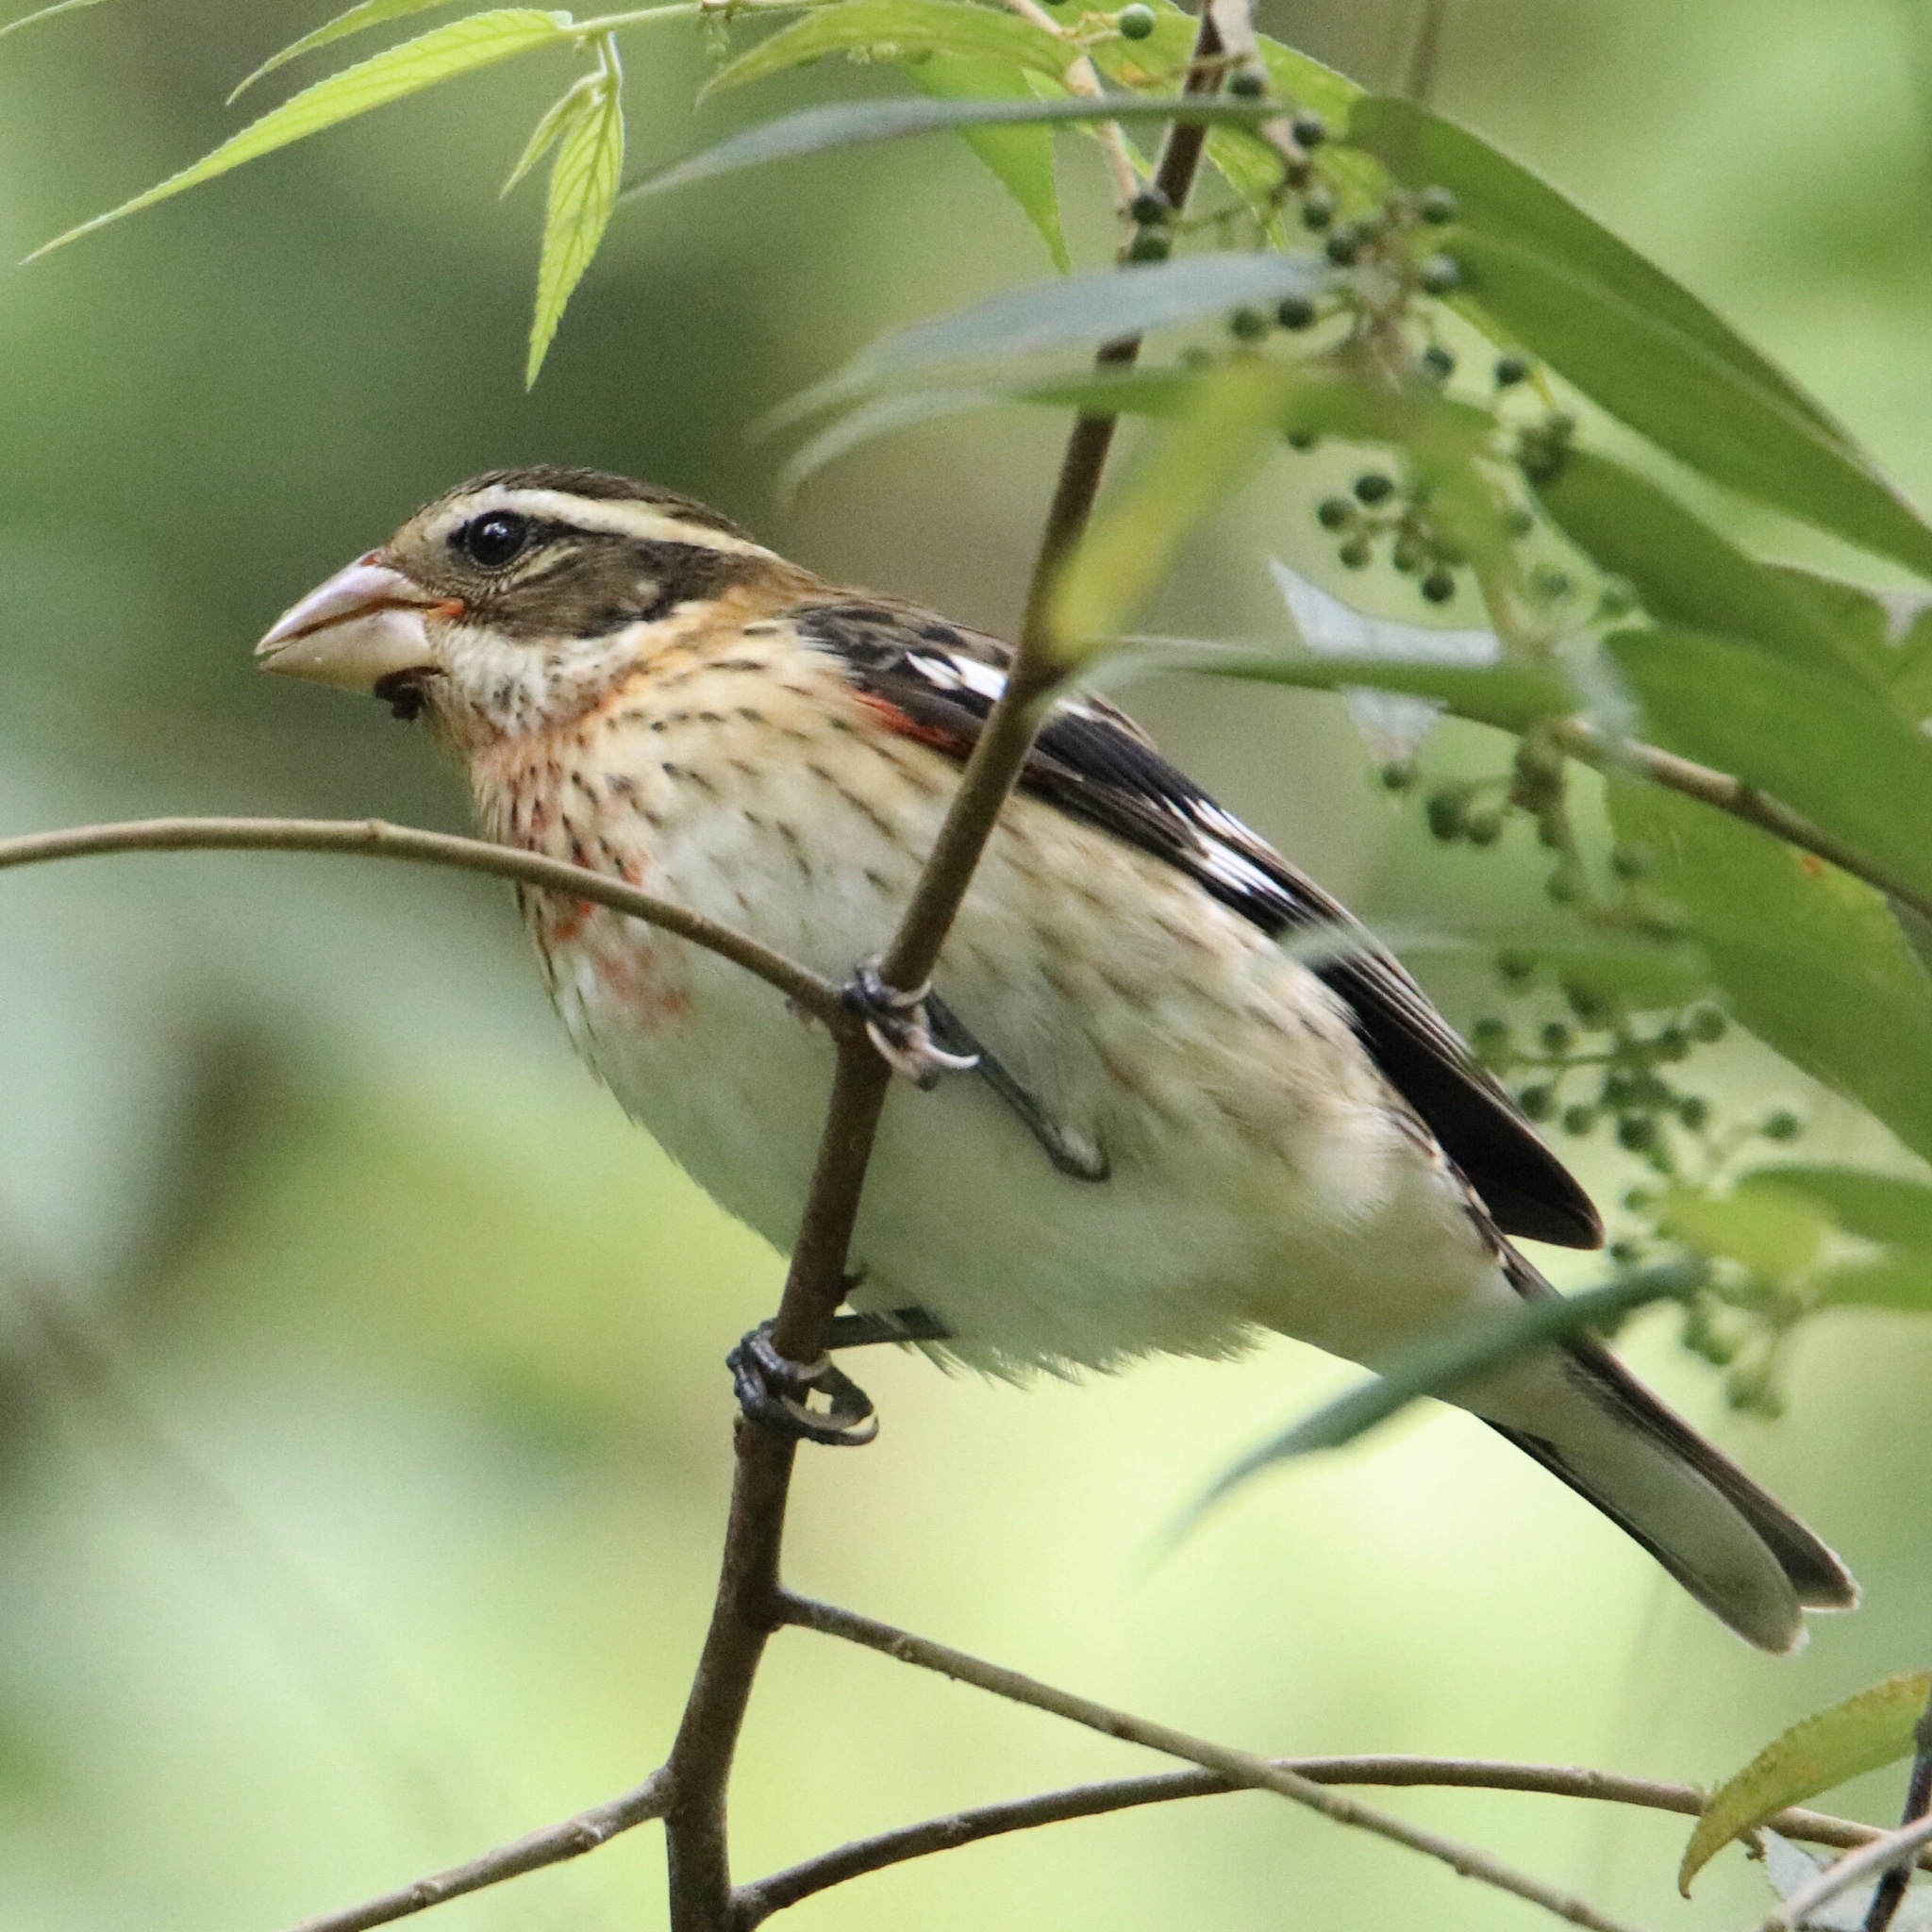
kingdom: Animalia
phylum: Chordata
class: Aves
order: Passeriformes
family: Cardinalidae
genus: Pheucticus
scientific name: Pheucticus ludovicianus
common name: Rose-breasted grosbeak
